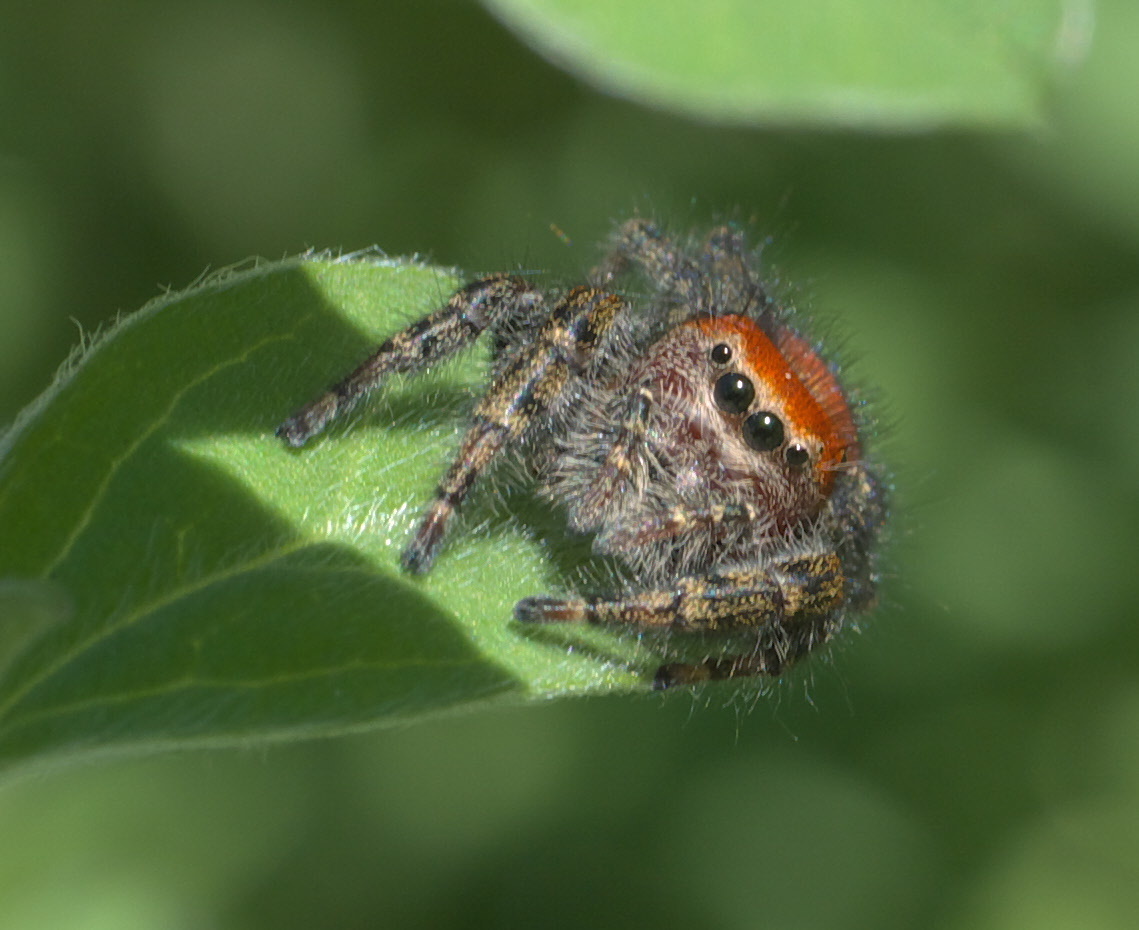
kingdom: Animalia
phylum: Arthropoda
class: Arachnida
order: Araneae
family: Salticidae
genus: Phidippus
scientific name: Phidippus cardinalis
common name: Cardinal jumper
